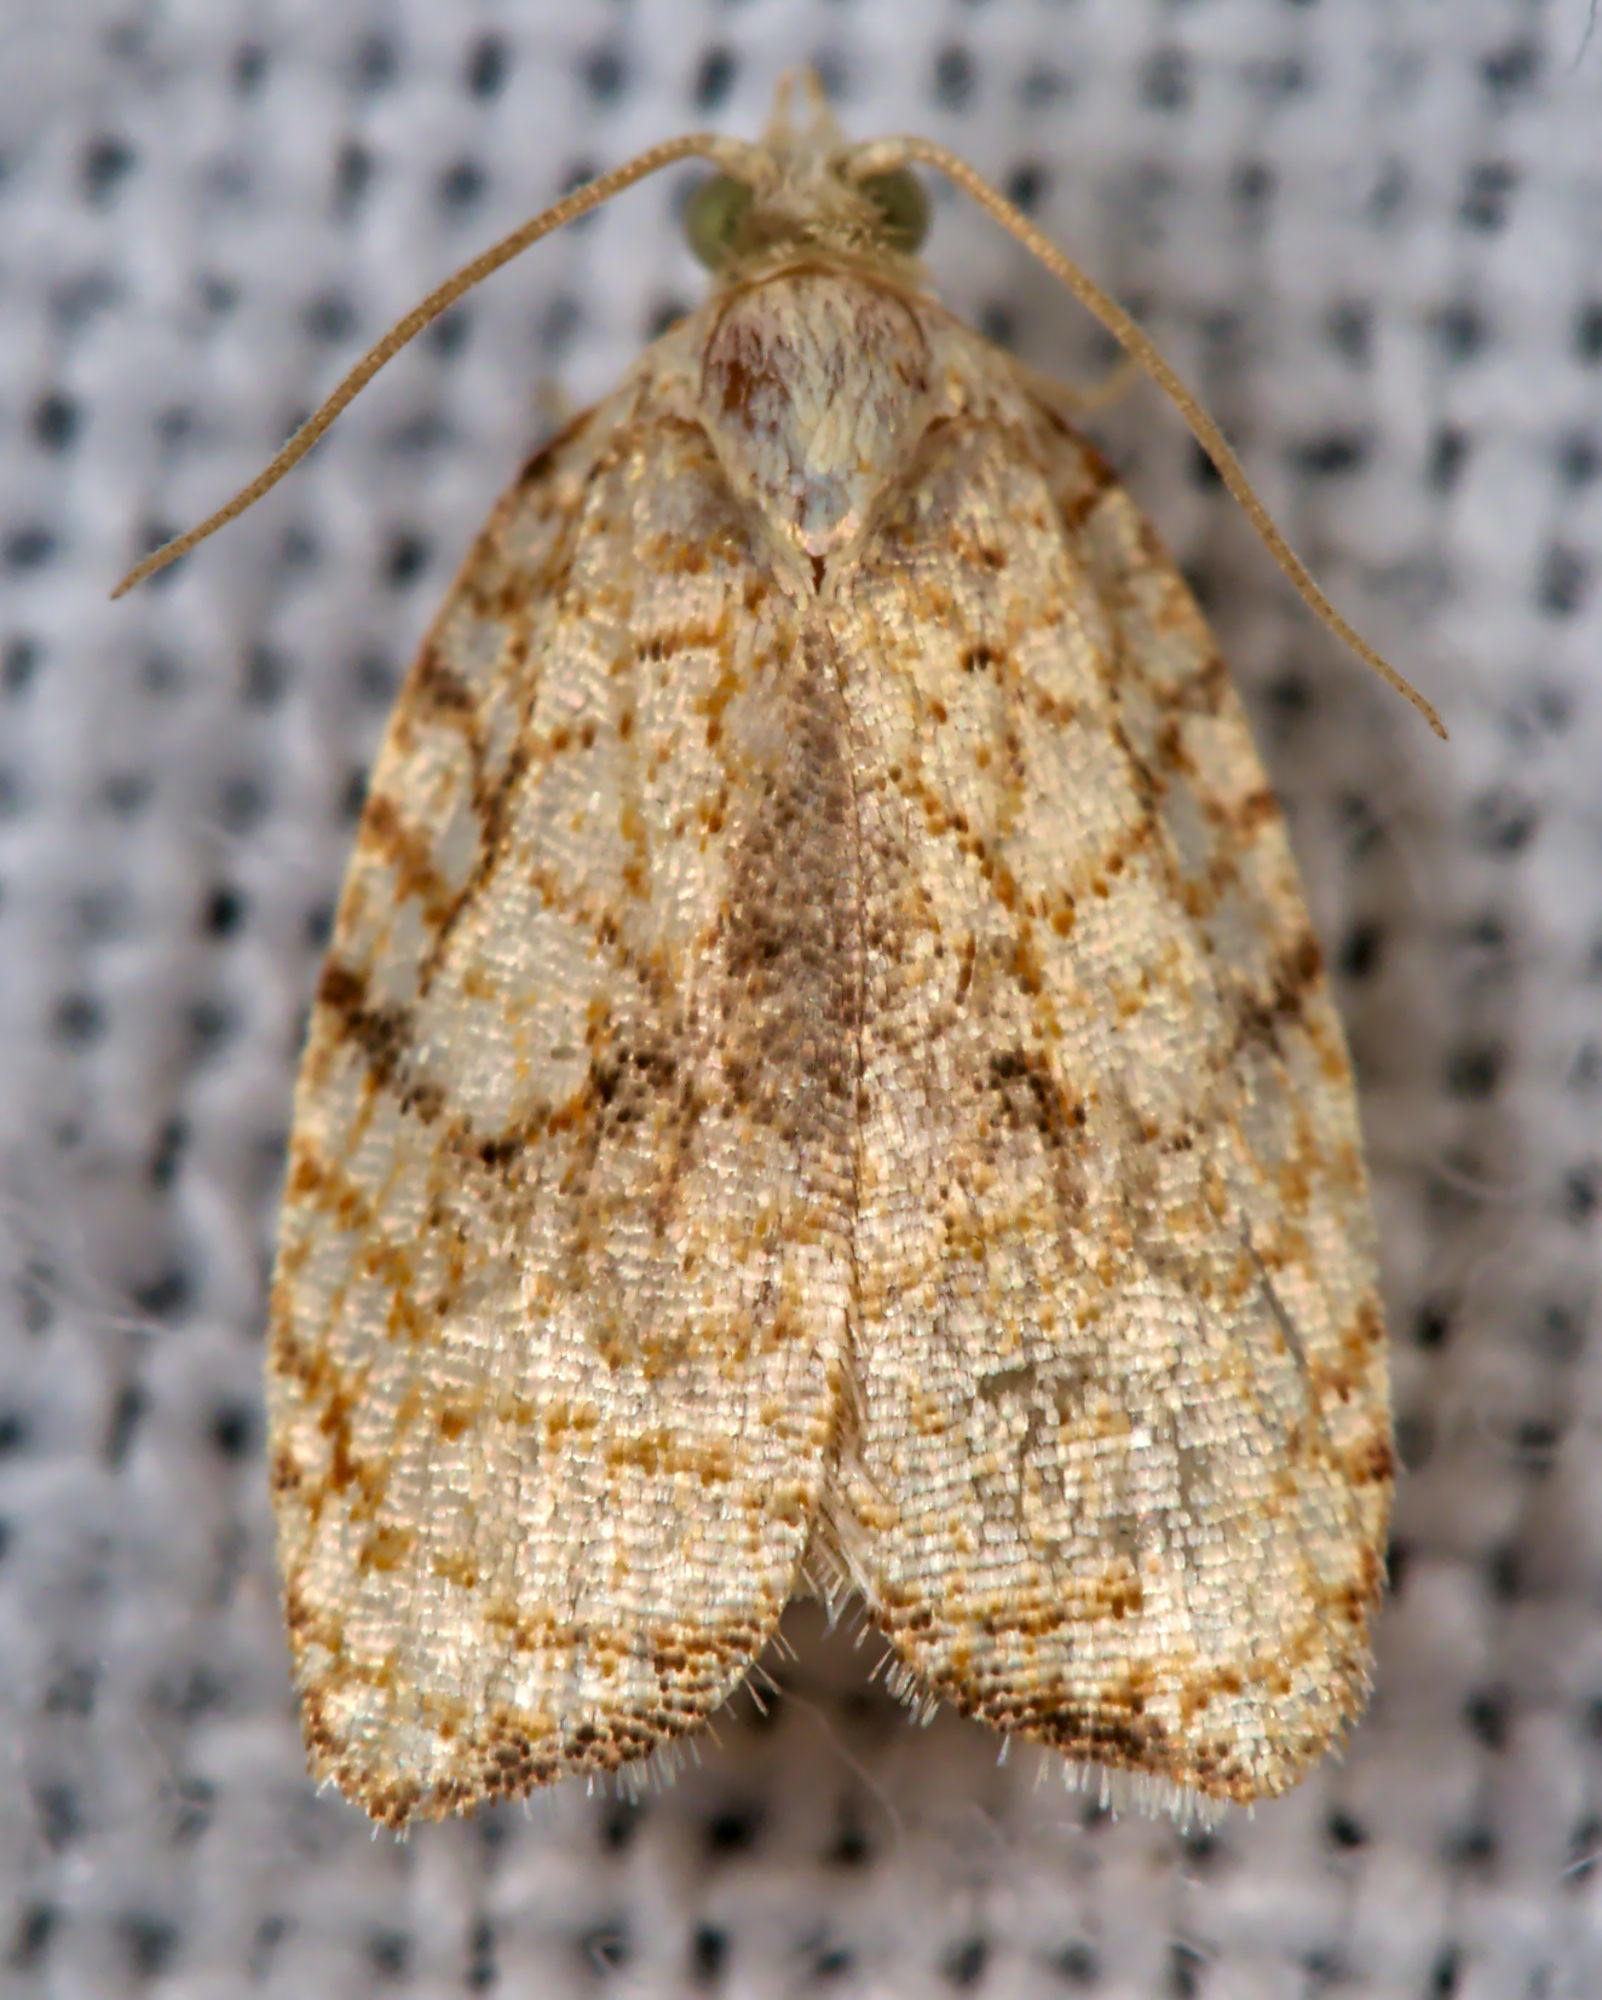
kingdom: Animalia
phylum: Arthropoda
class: Insecta
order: Lepidoptera
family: Tortricidae
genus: Acleris
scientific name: Acleris forsskaleana
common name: Maple button
